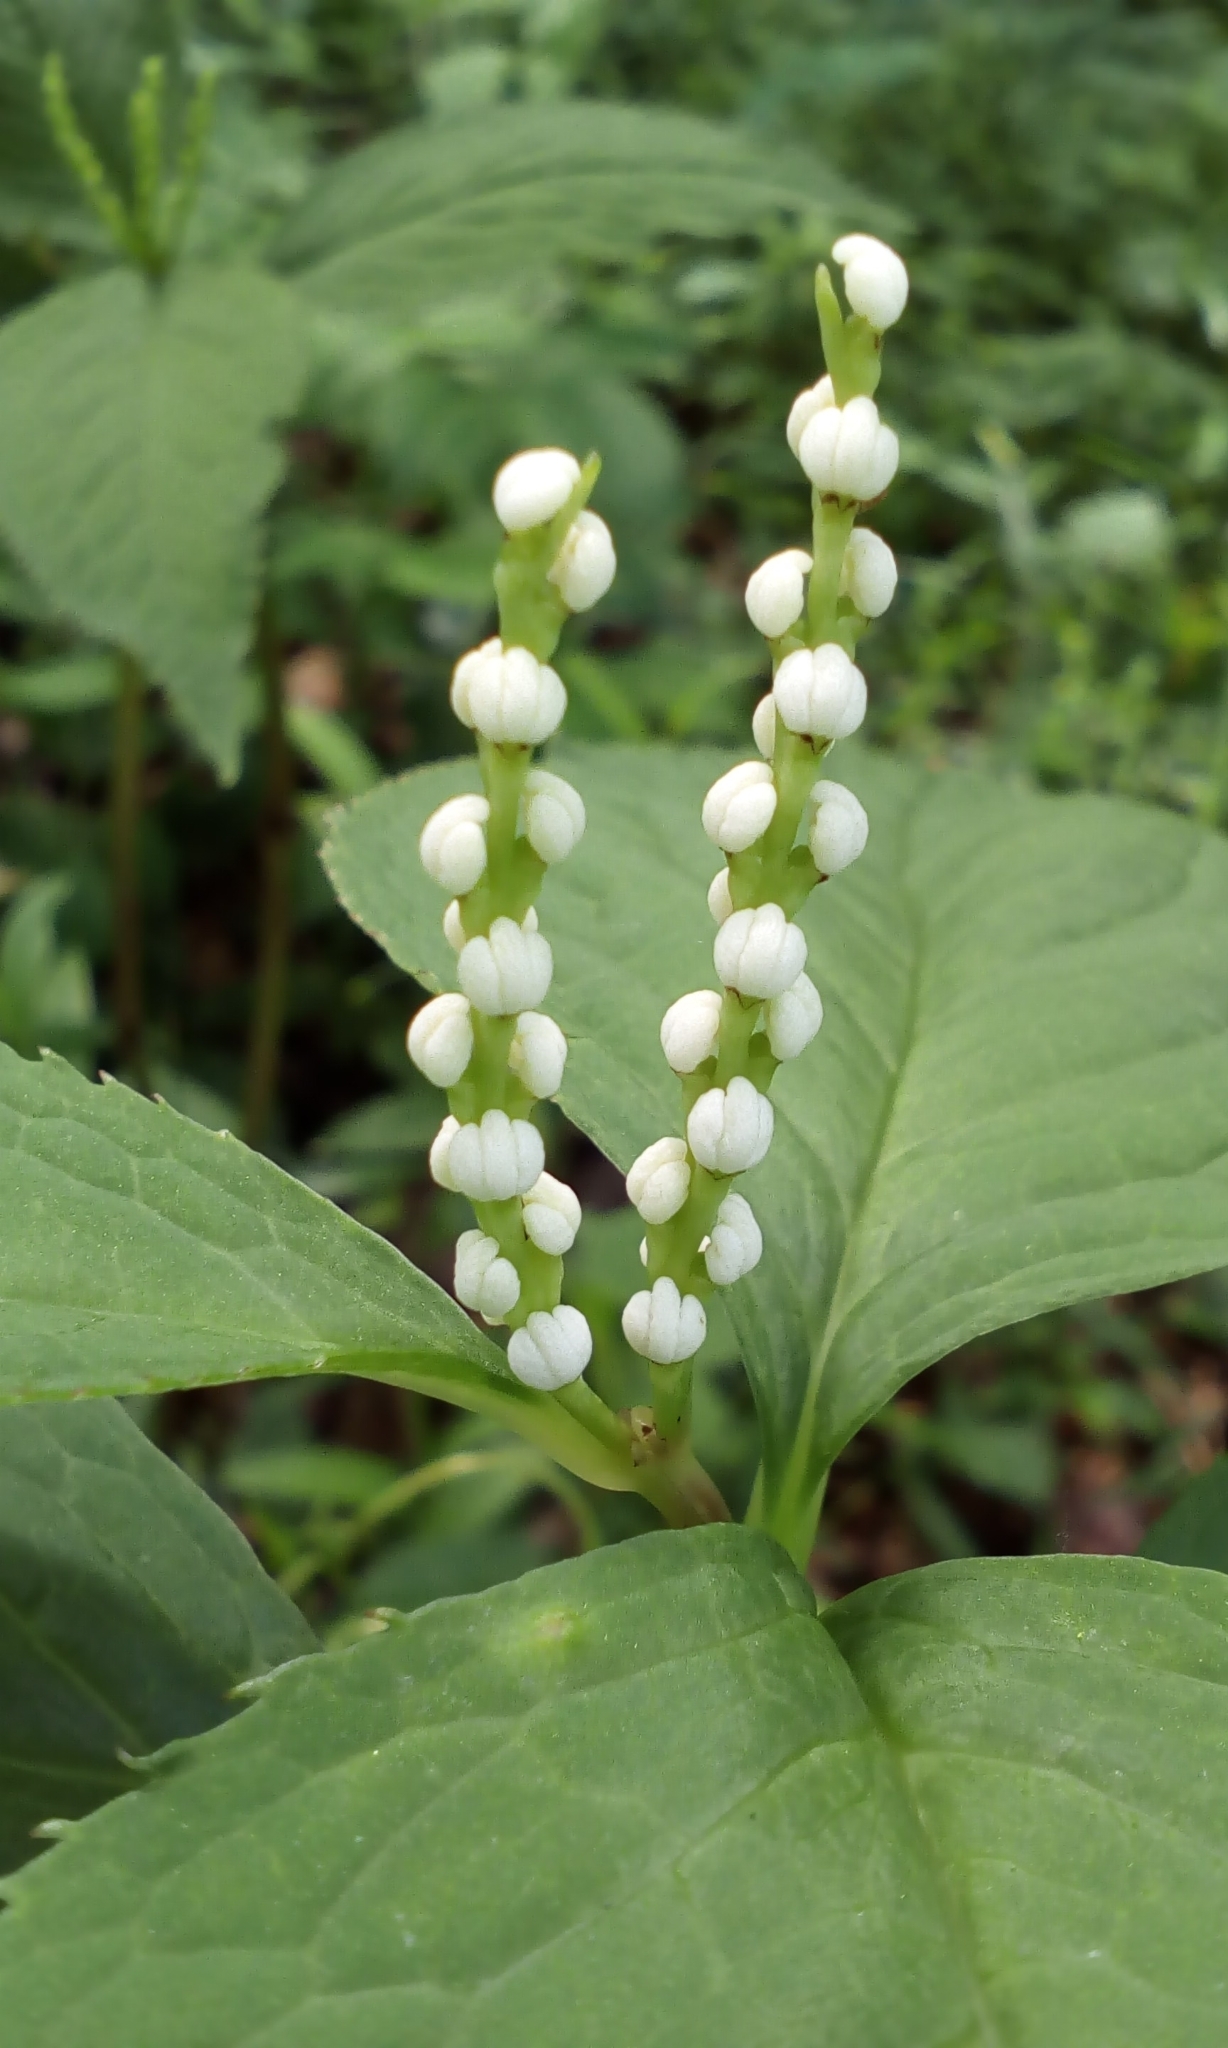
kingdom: Plantae
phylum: Tracheophyta
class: Magnoliopsida
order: Chloranthales
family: Chloranthaceae
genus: Chloranthus
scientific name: Chloranthus serratus
